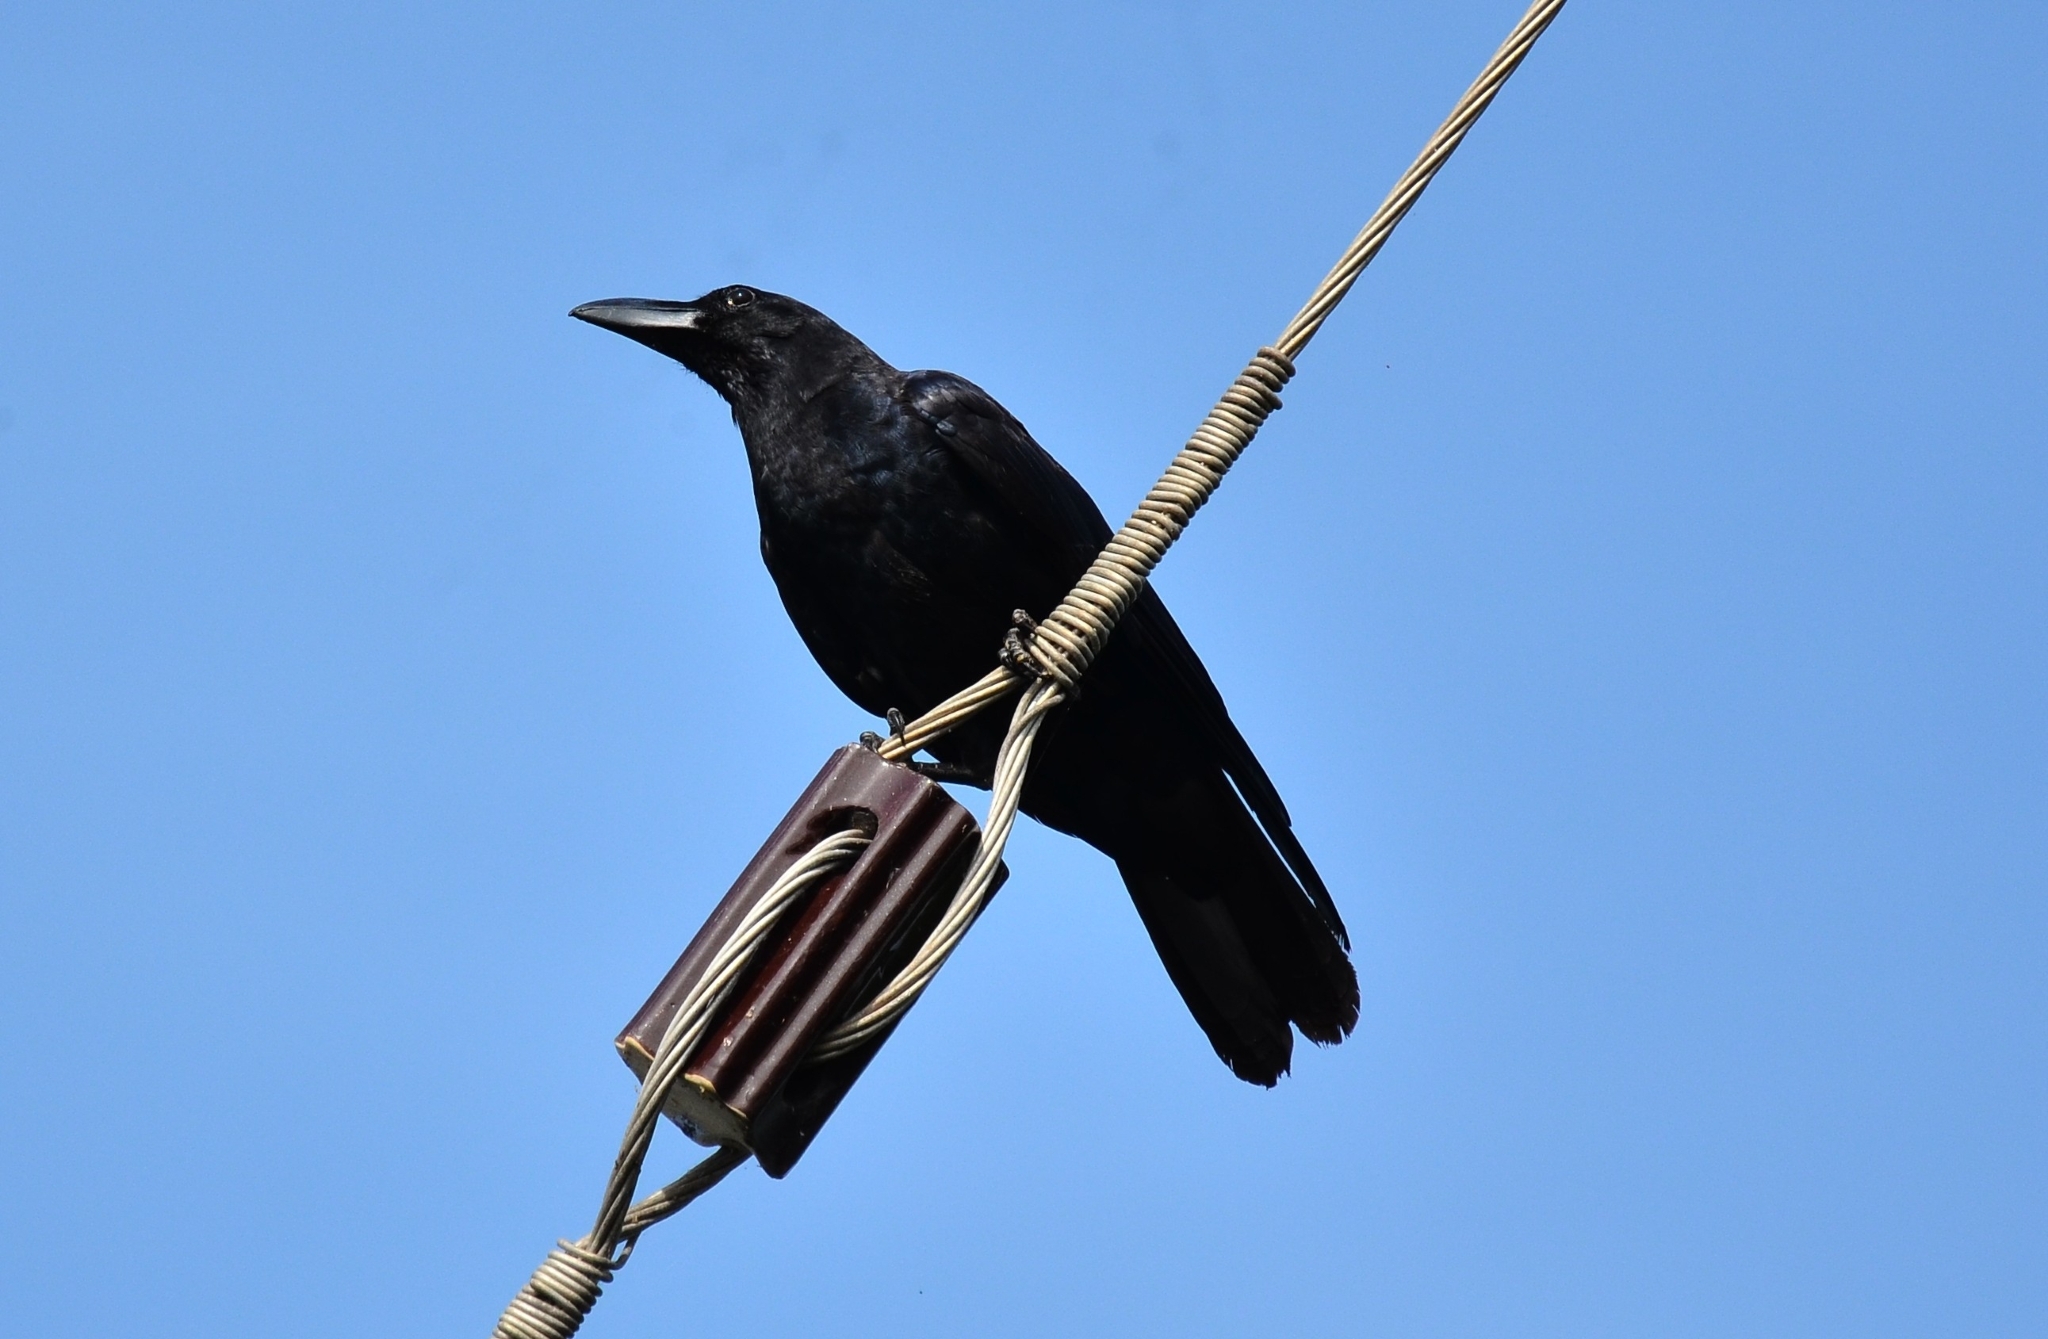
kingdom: Animalia
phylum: Chordata
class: Aves
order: Passeriformes
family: Corvidae
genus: Corvus
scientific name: Corvus macrorhynchos
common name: Large-billed crow
